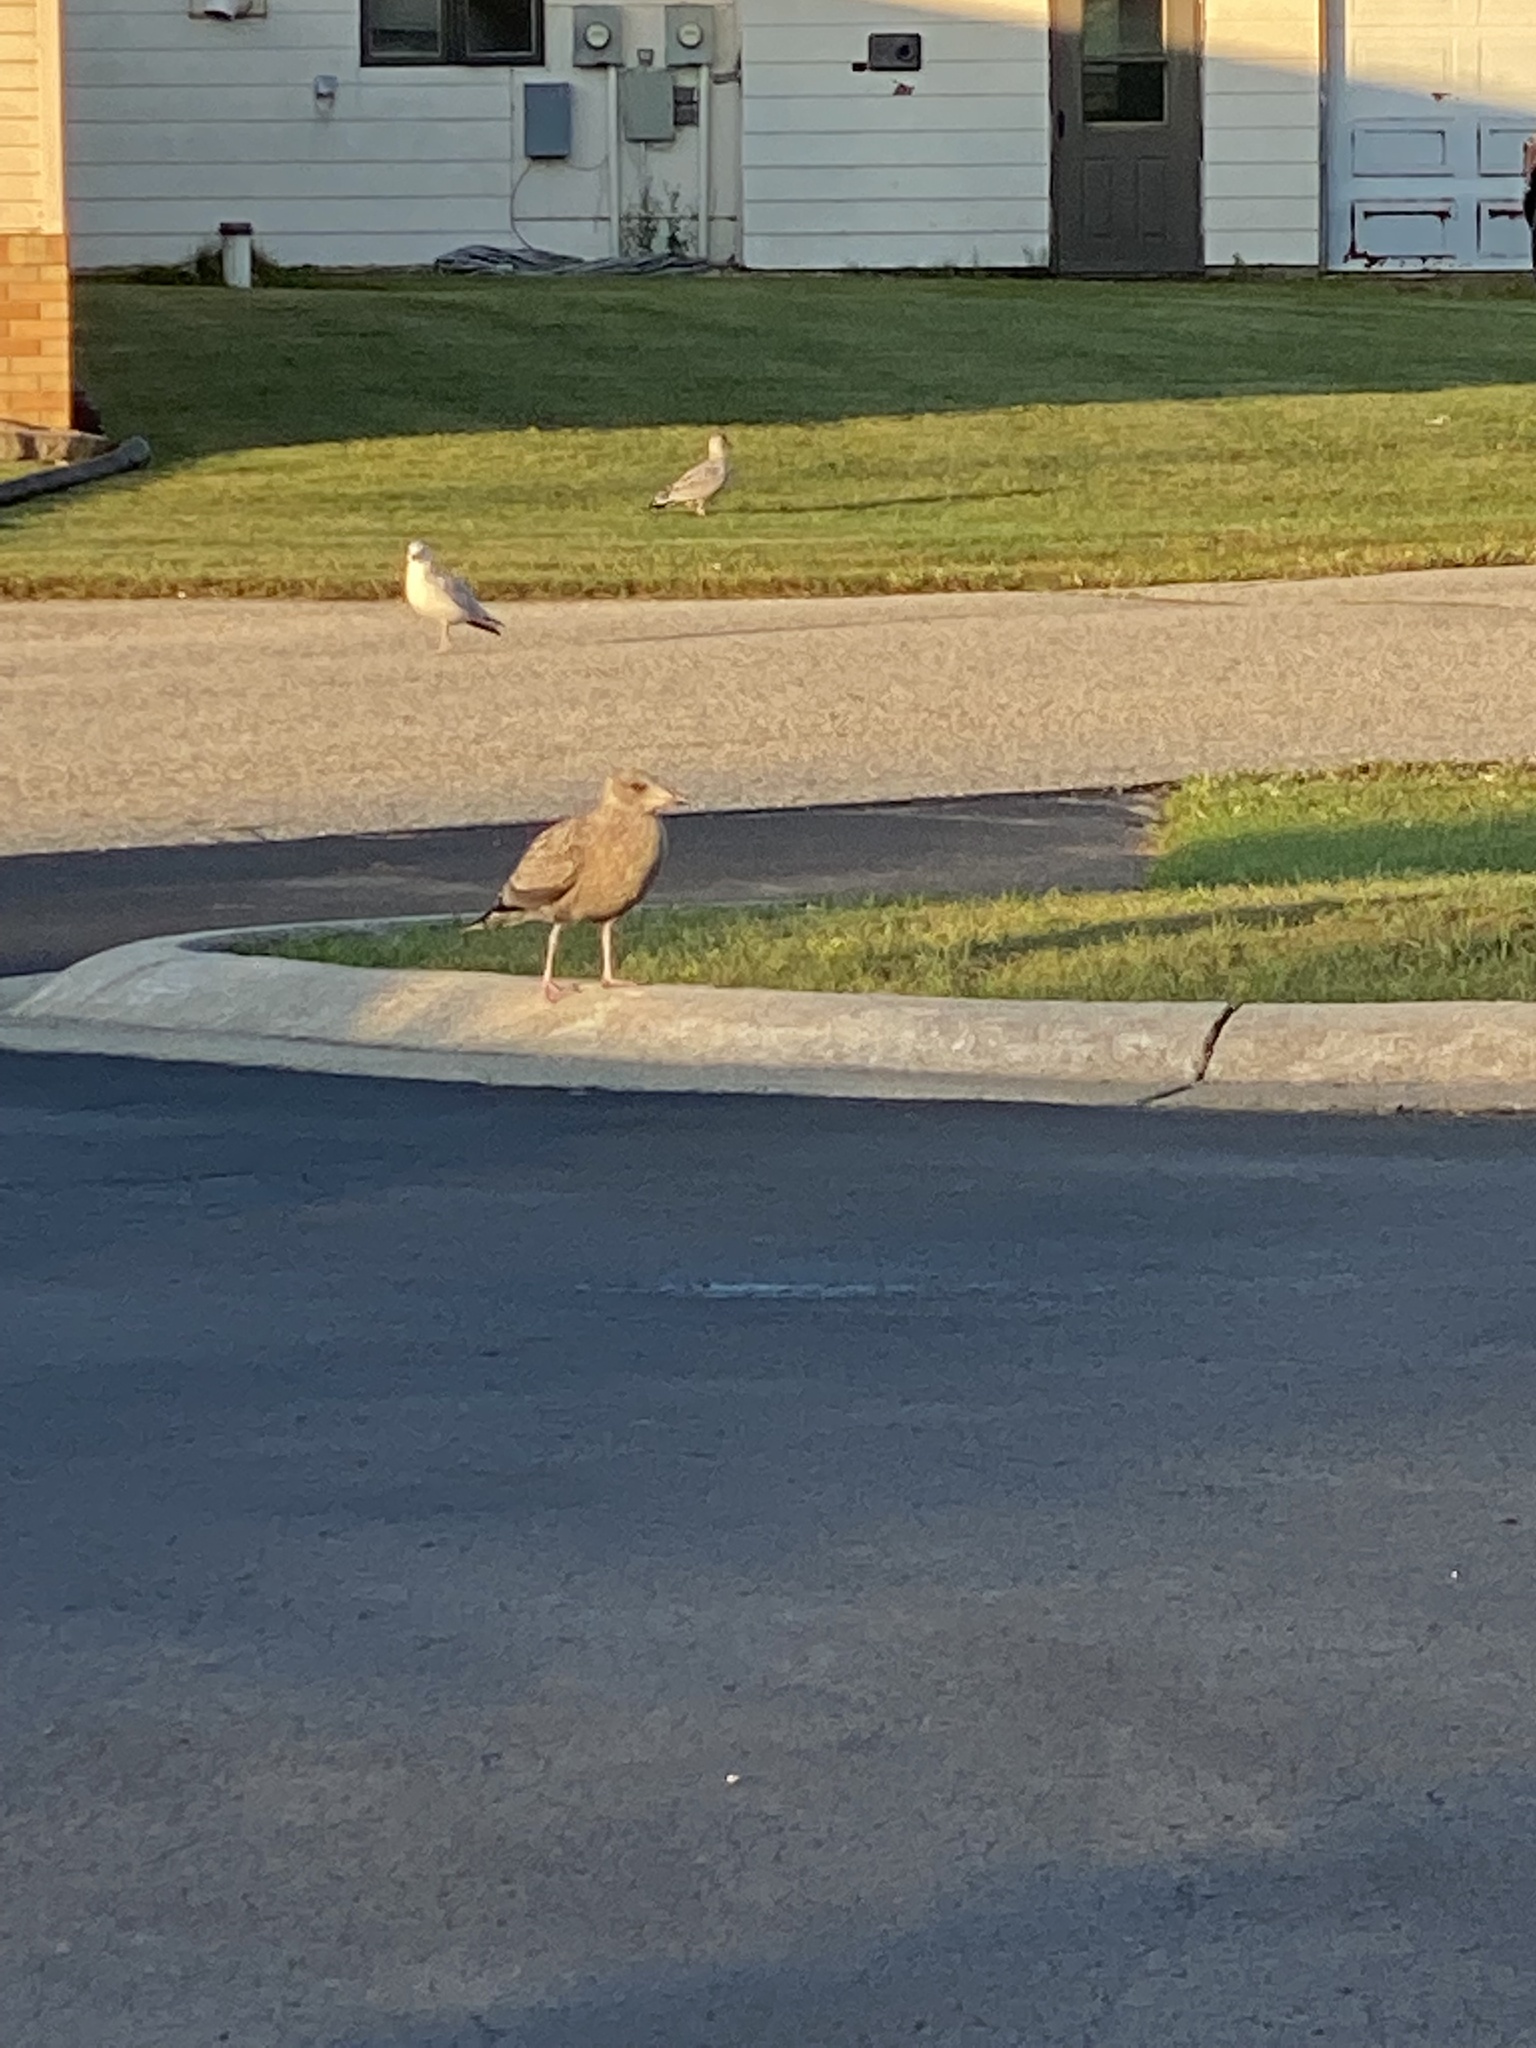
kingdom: Animalia
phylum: Chordata
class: Aves
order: Charadriiformes
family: Laridae
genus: Larus
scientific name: Larus argentatus
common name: Herring gull
